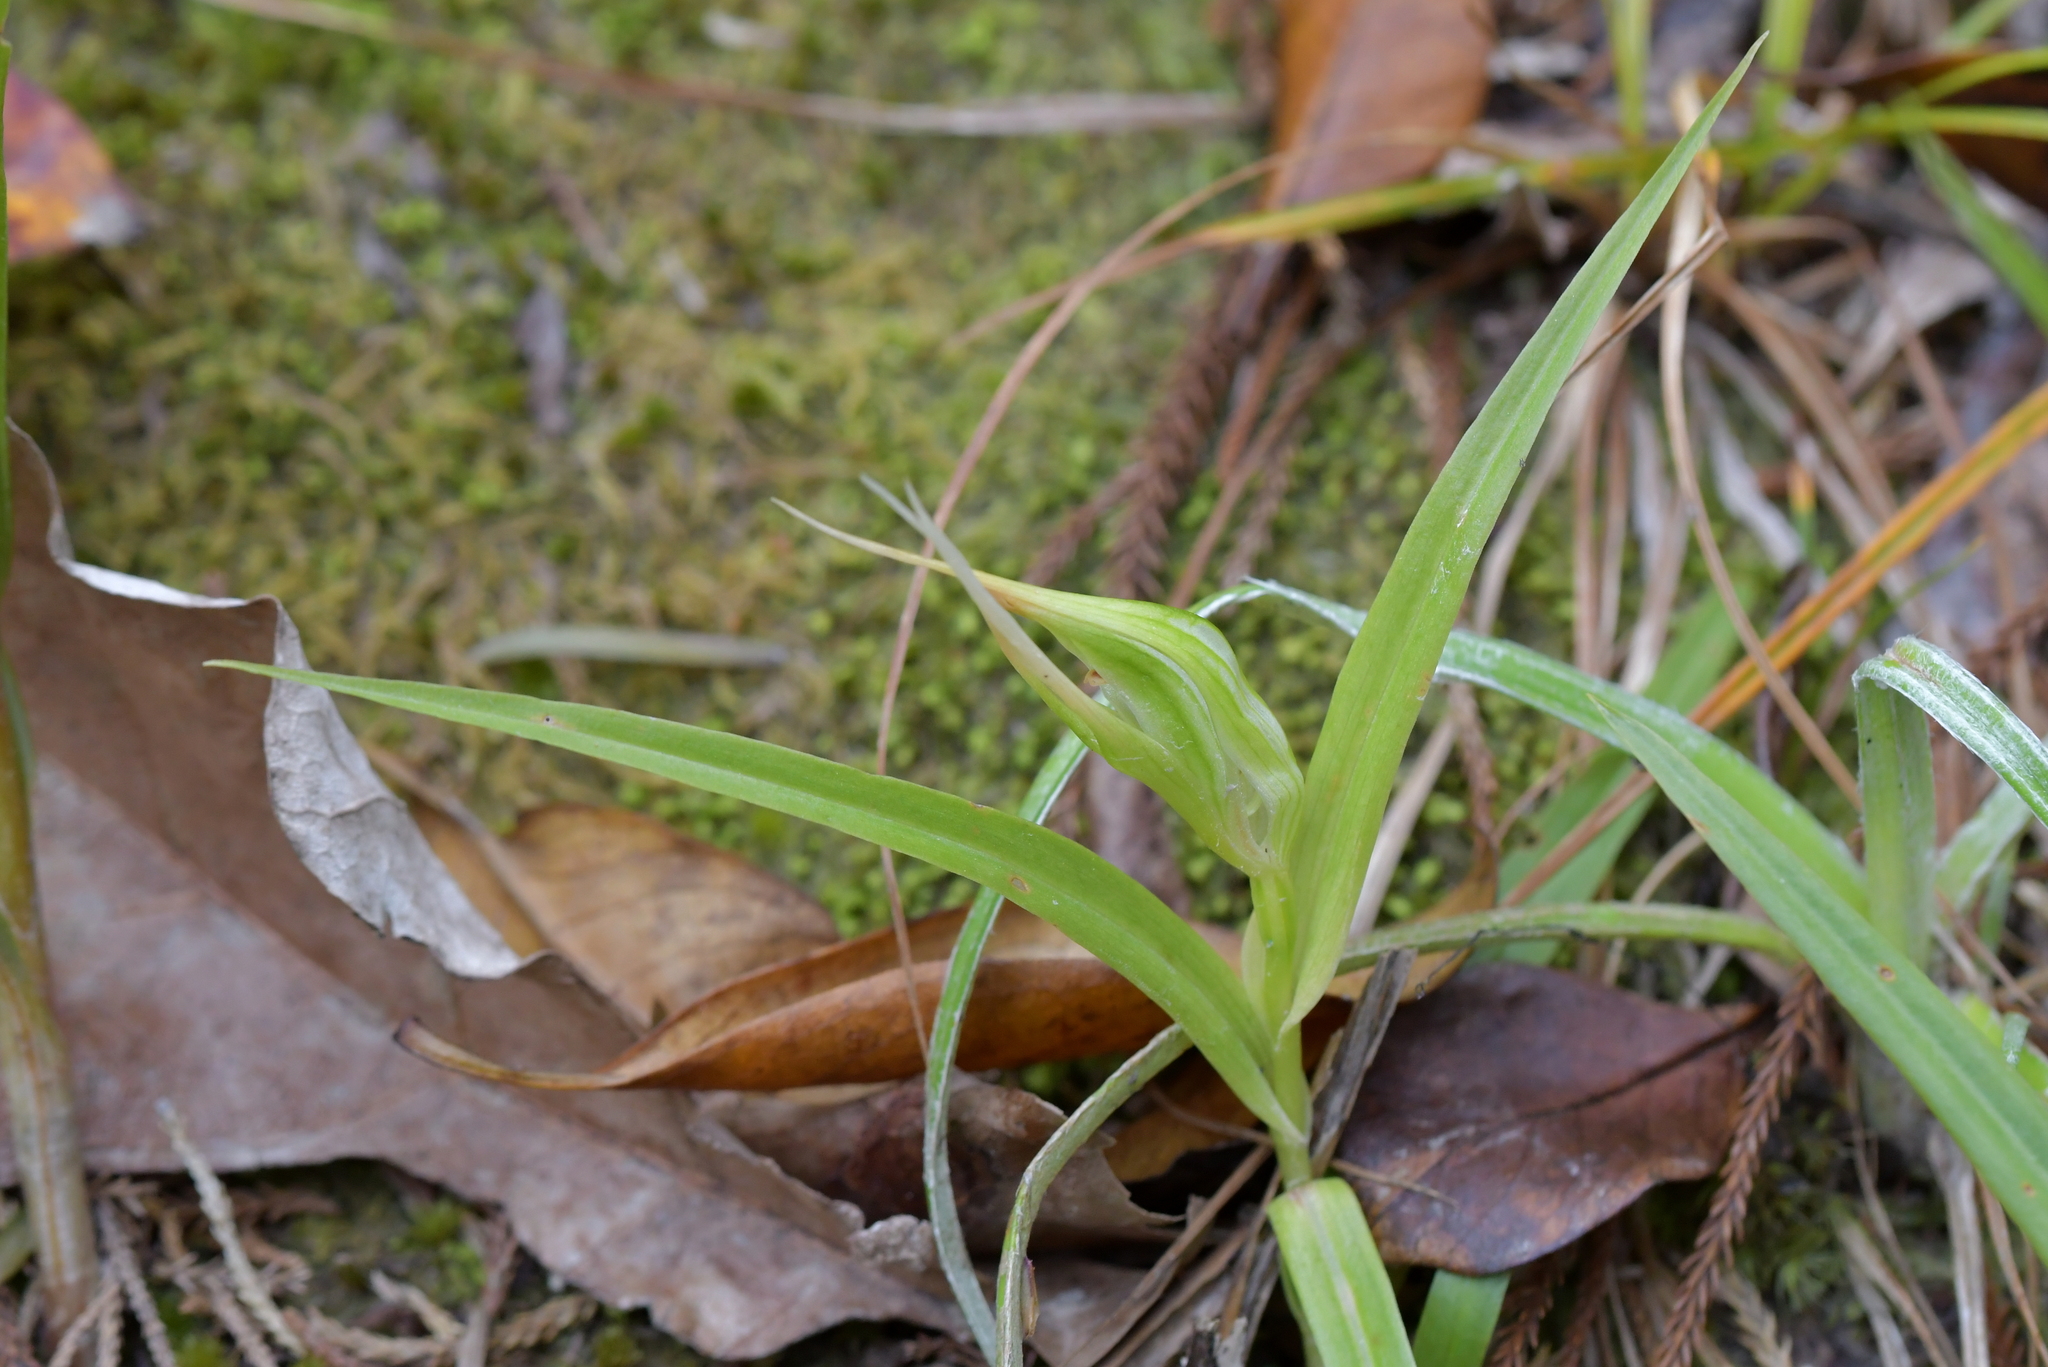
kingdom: Plantae
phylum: Tracheophyta
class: Liliopsida
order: Asparagales
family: Orchidaceae
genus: Pterostylis
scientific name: Pterostylis banksii
